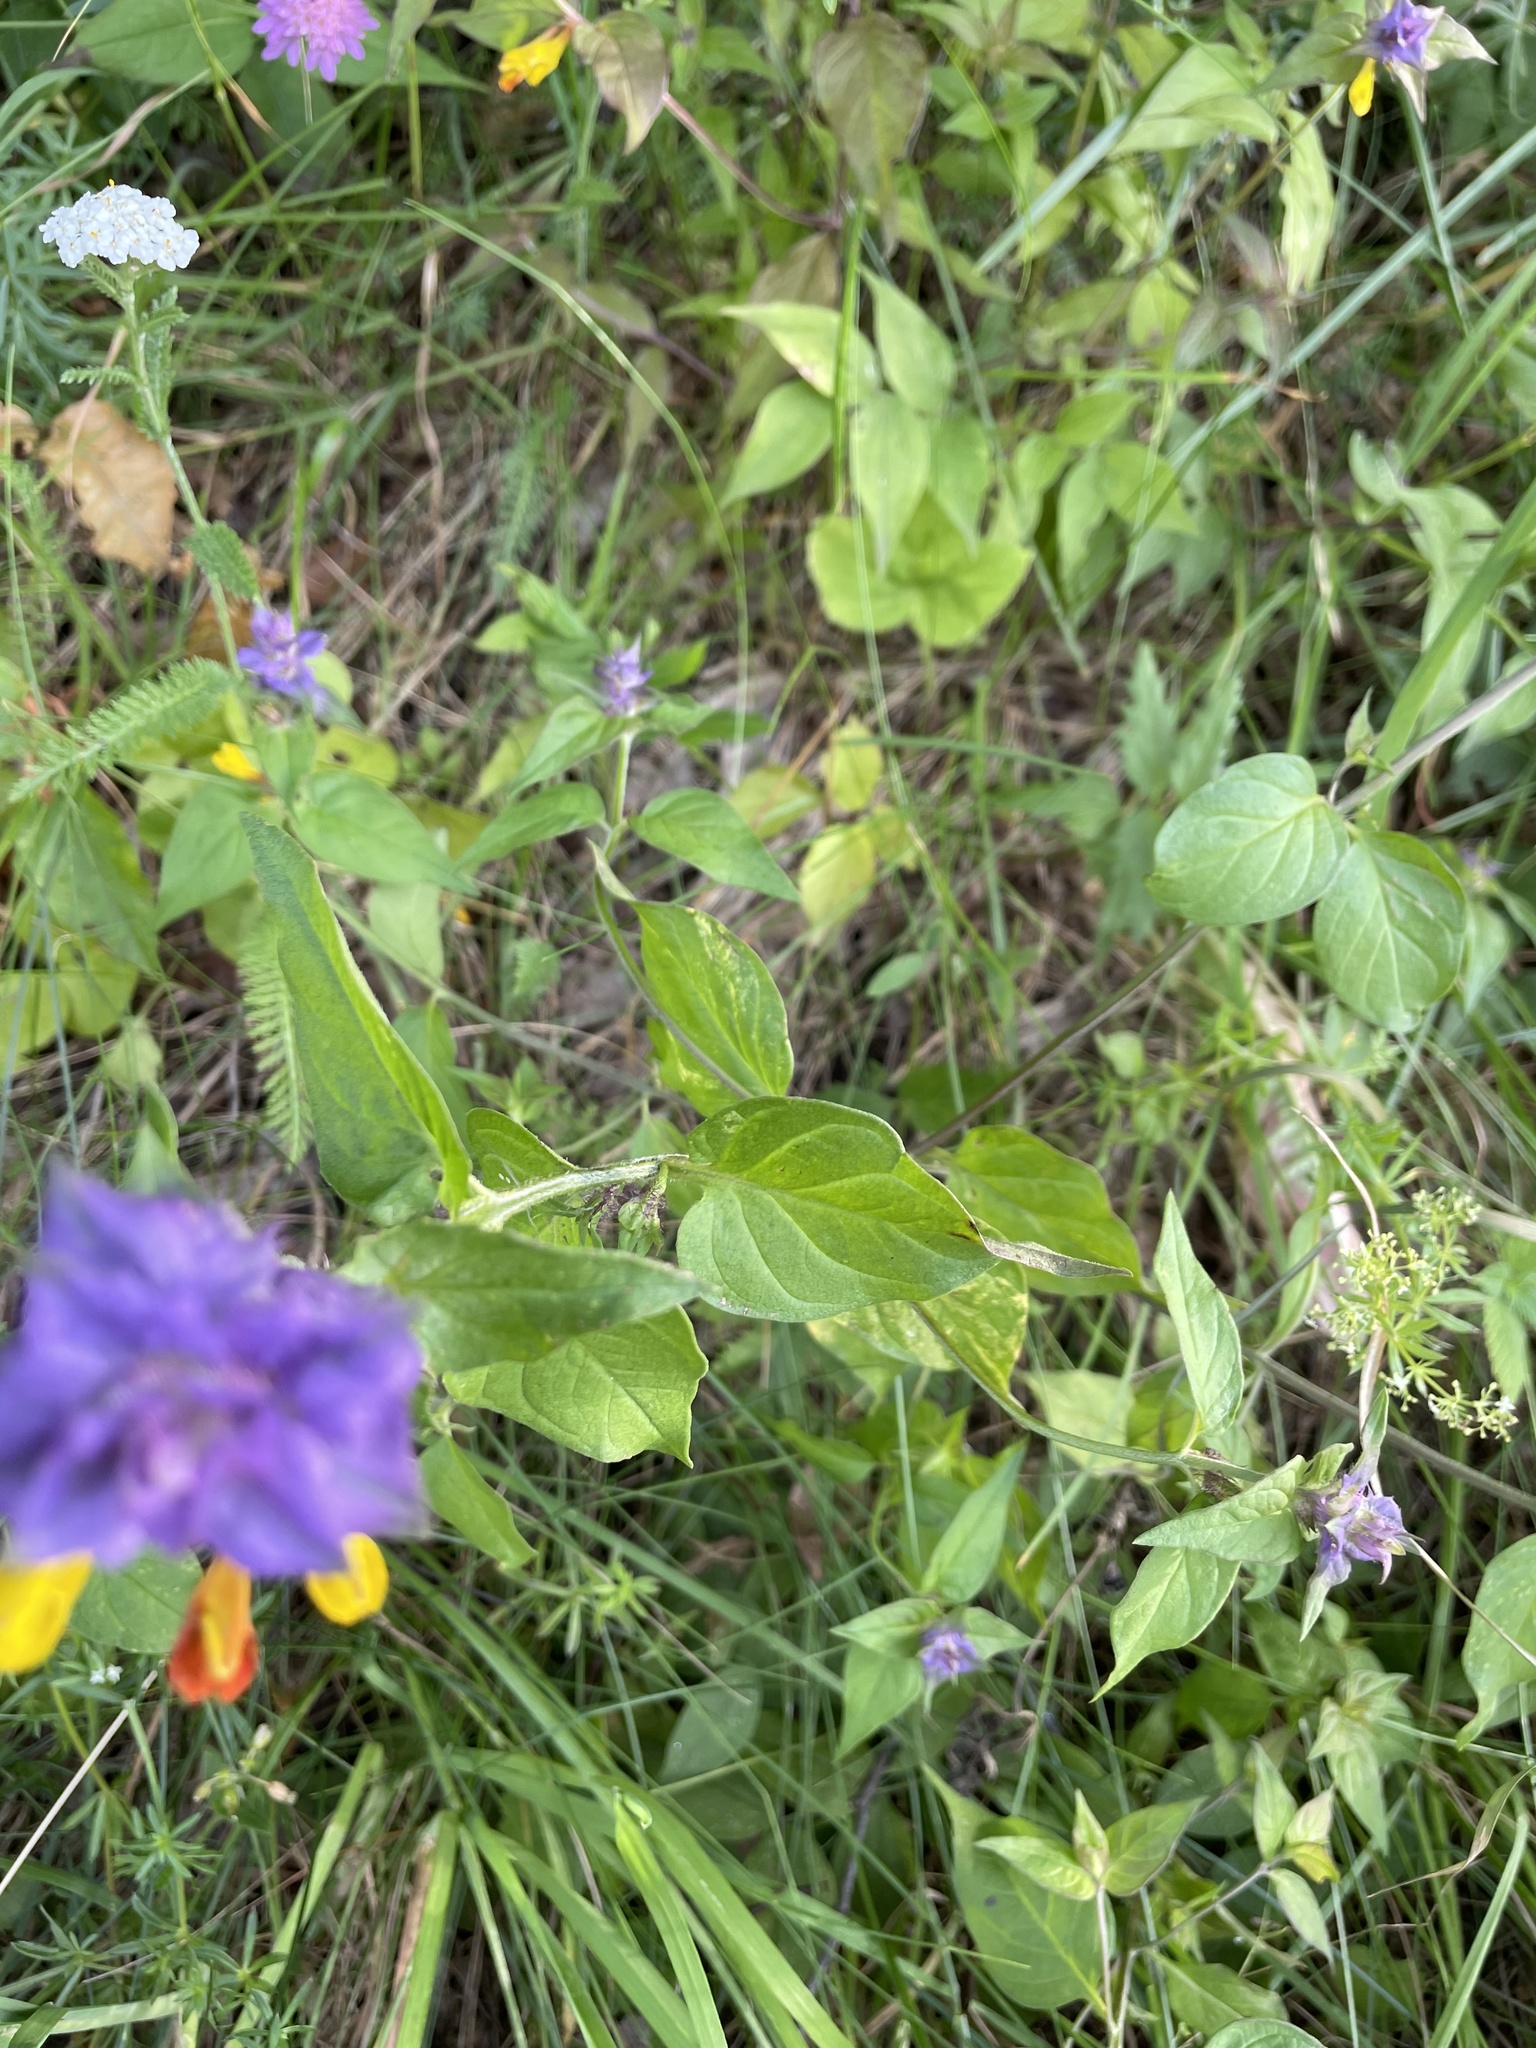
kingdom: Plantae
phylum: Tracheophyta
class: Magnoliopsida
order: Lamiales
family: Orobanchaceae
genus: Melampyrum
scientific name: Melampyrum nemorosum
